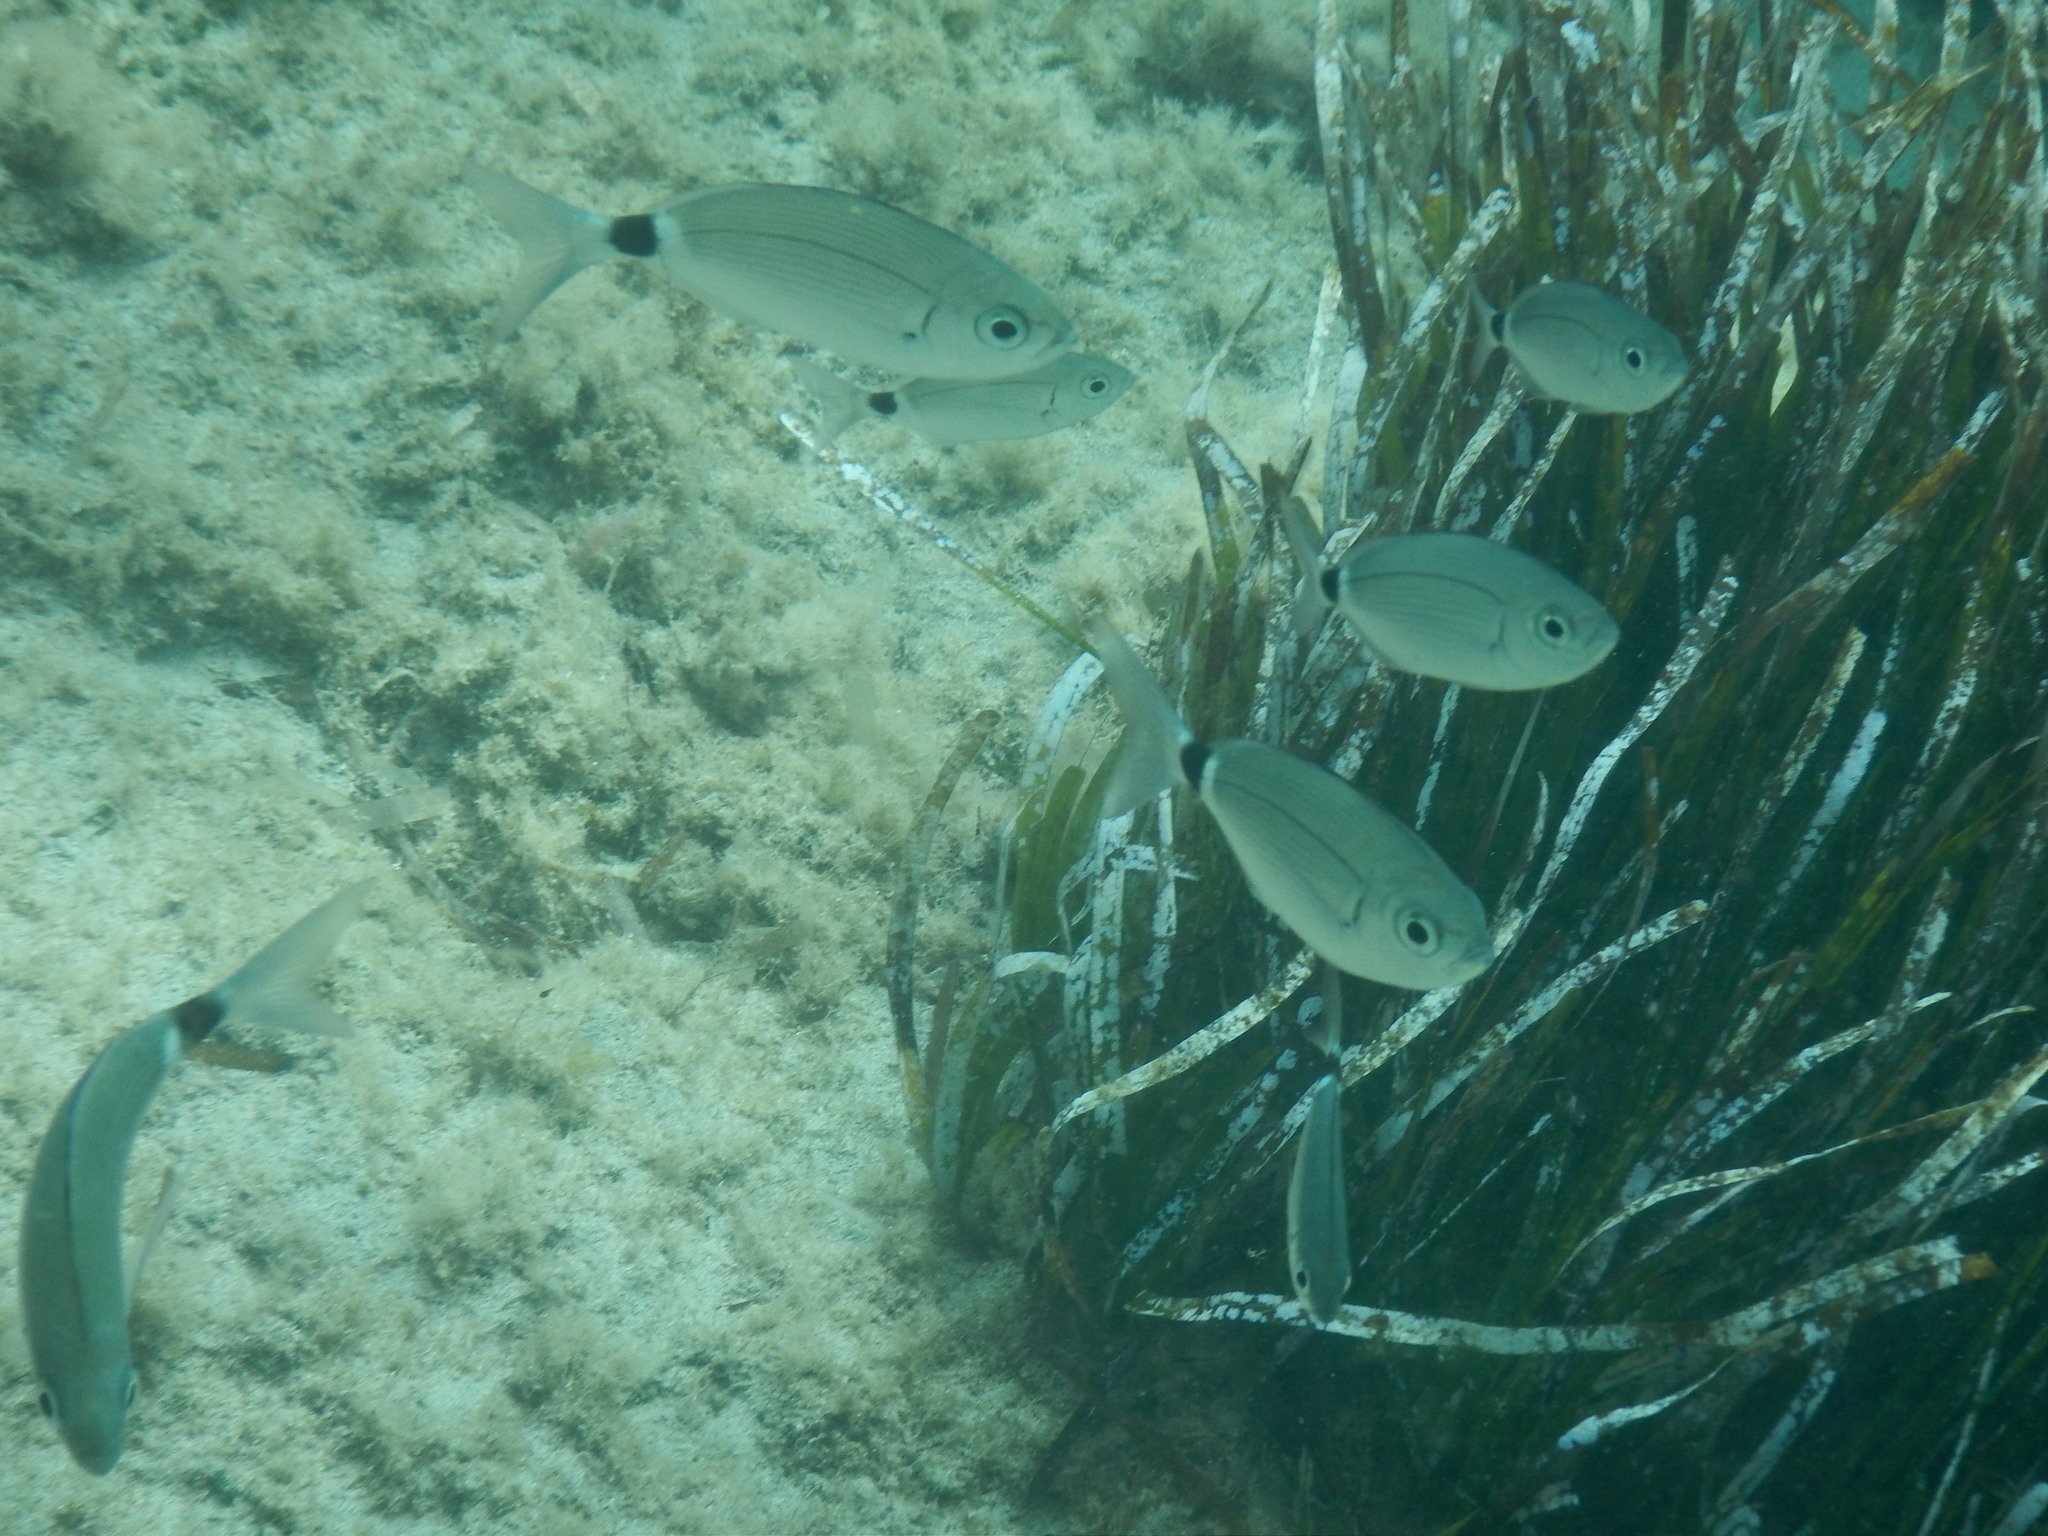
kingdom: Animalia
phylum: Chordata
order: Perciformes
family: Sparidae
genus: Oblada
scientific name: Oblada melanura
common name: Saddled seabream
